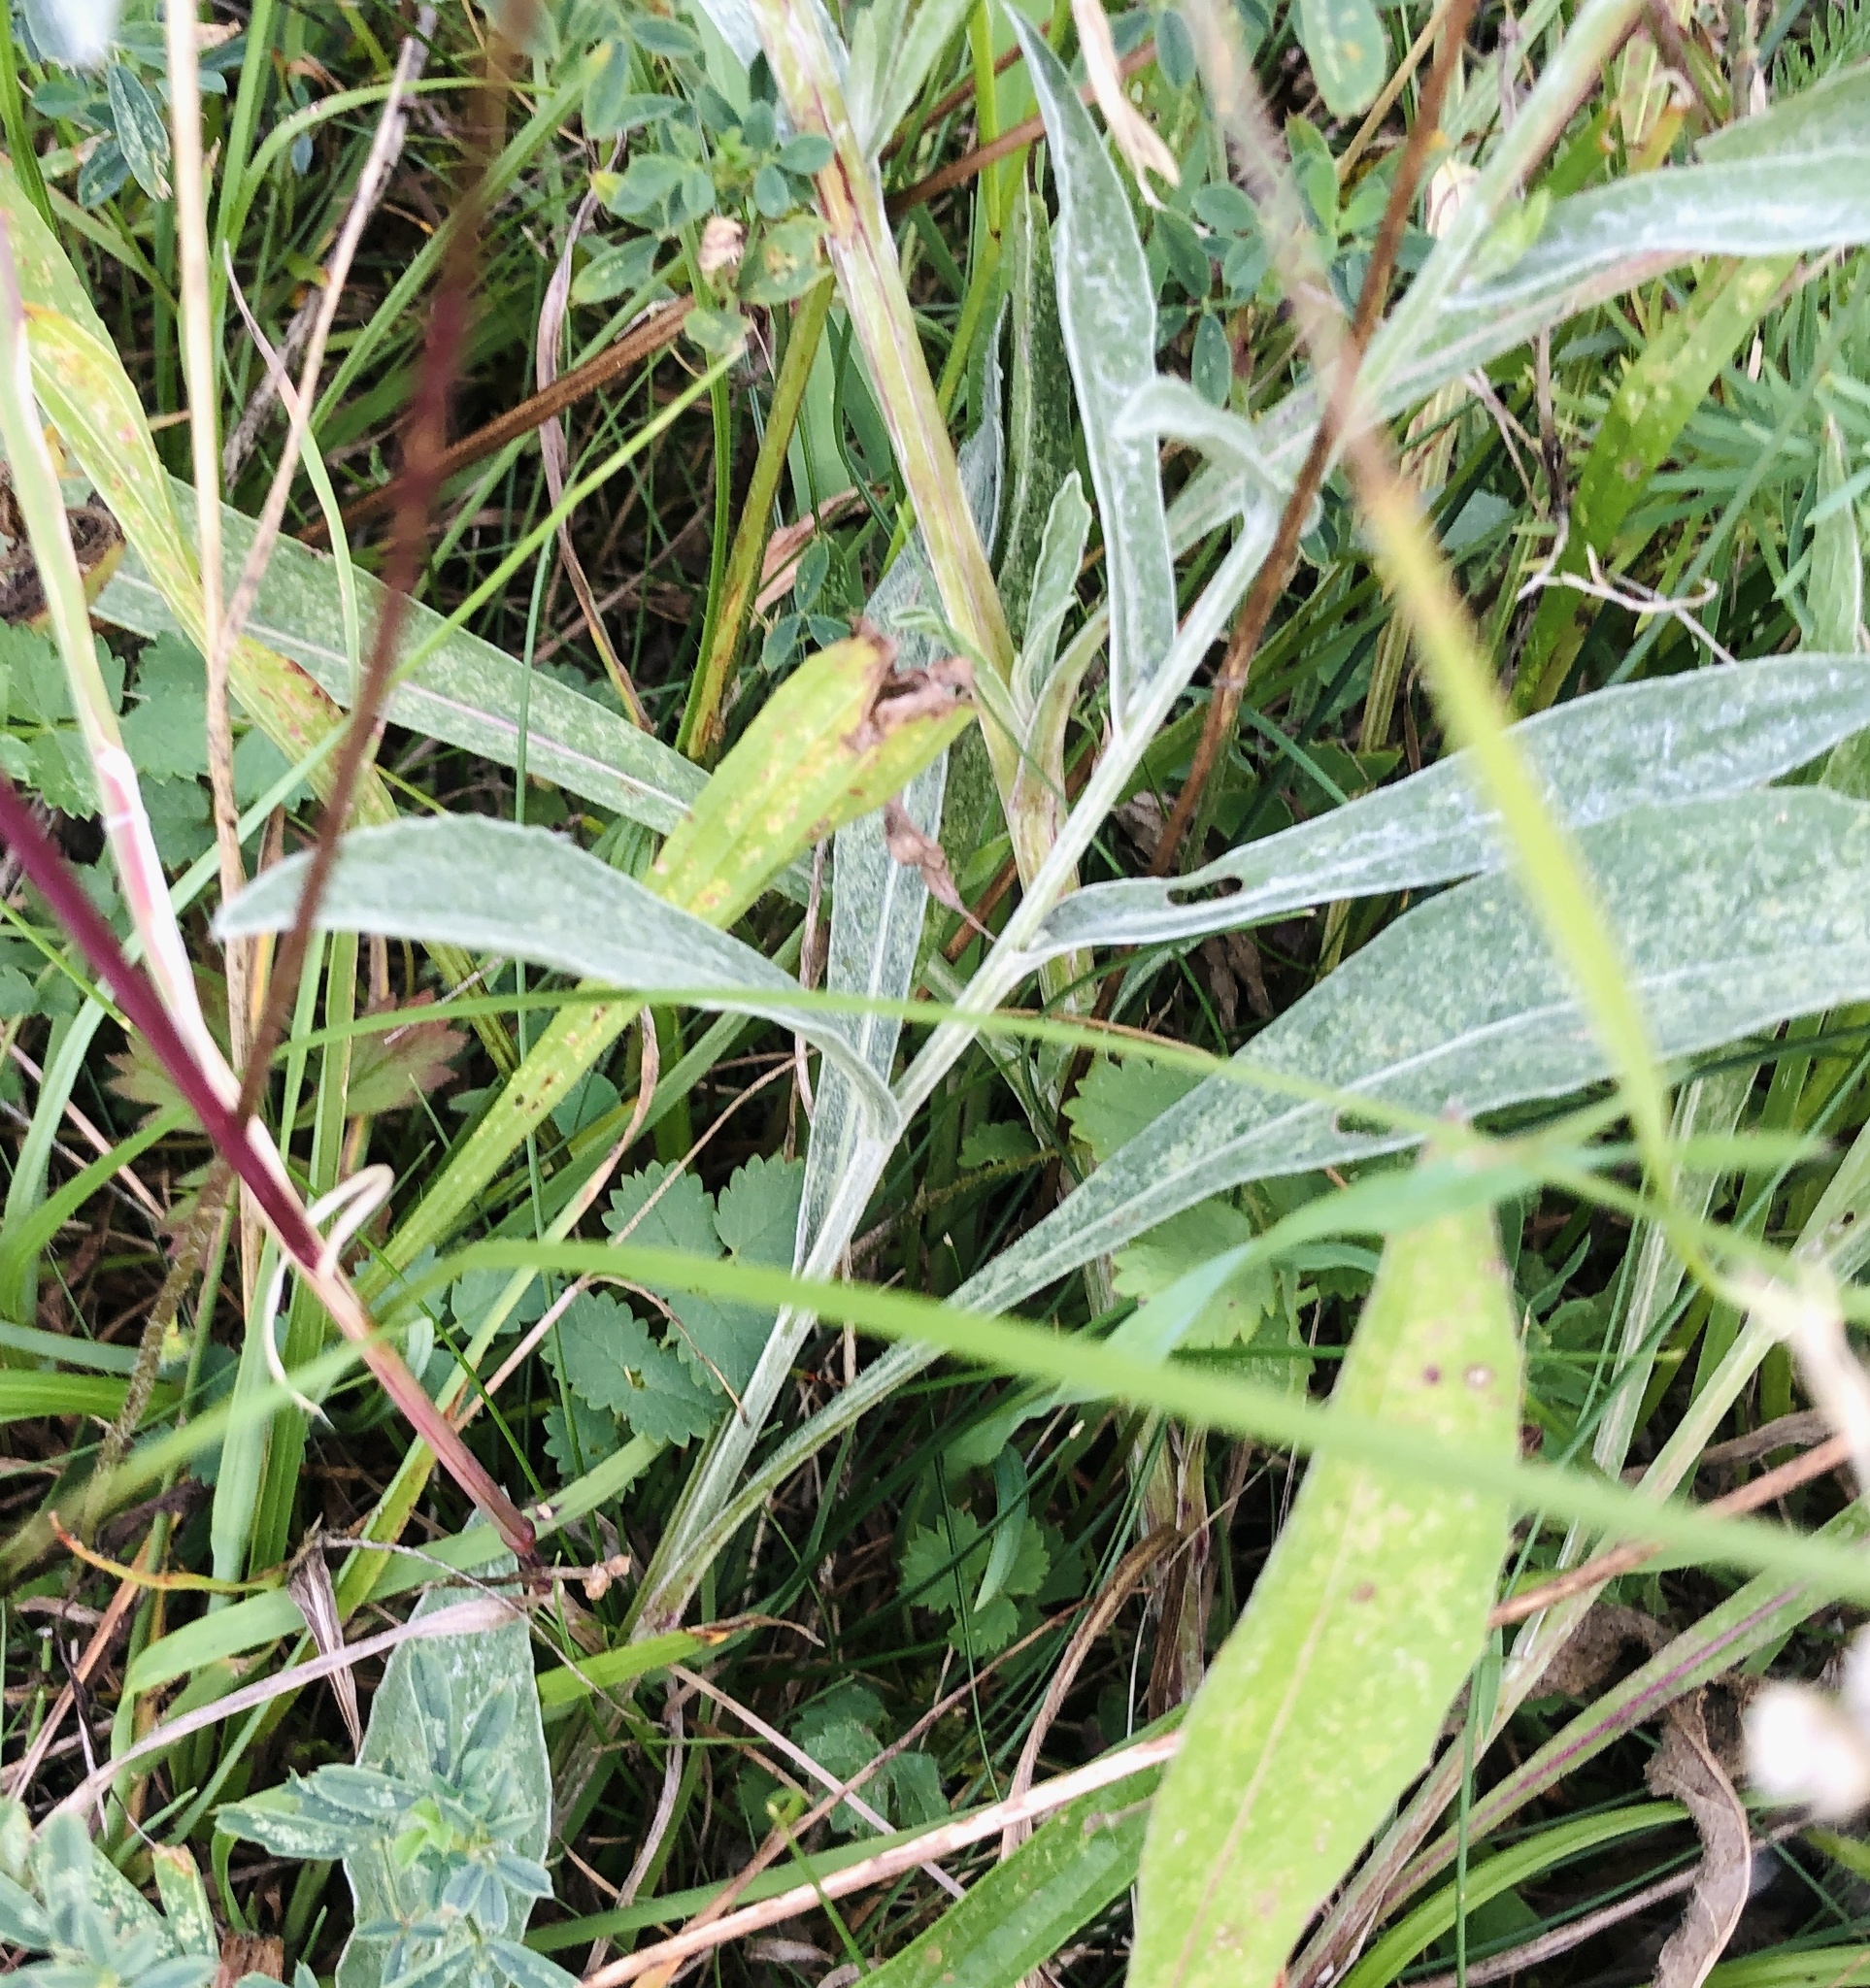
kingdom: Plantae
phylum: Tracheophyta
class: Magnoliopsida
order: Asterales
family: Asteraceae
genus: Centaurea
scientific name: Centaurea jacea
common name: Brown knapweed
